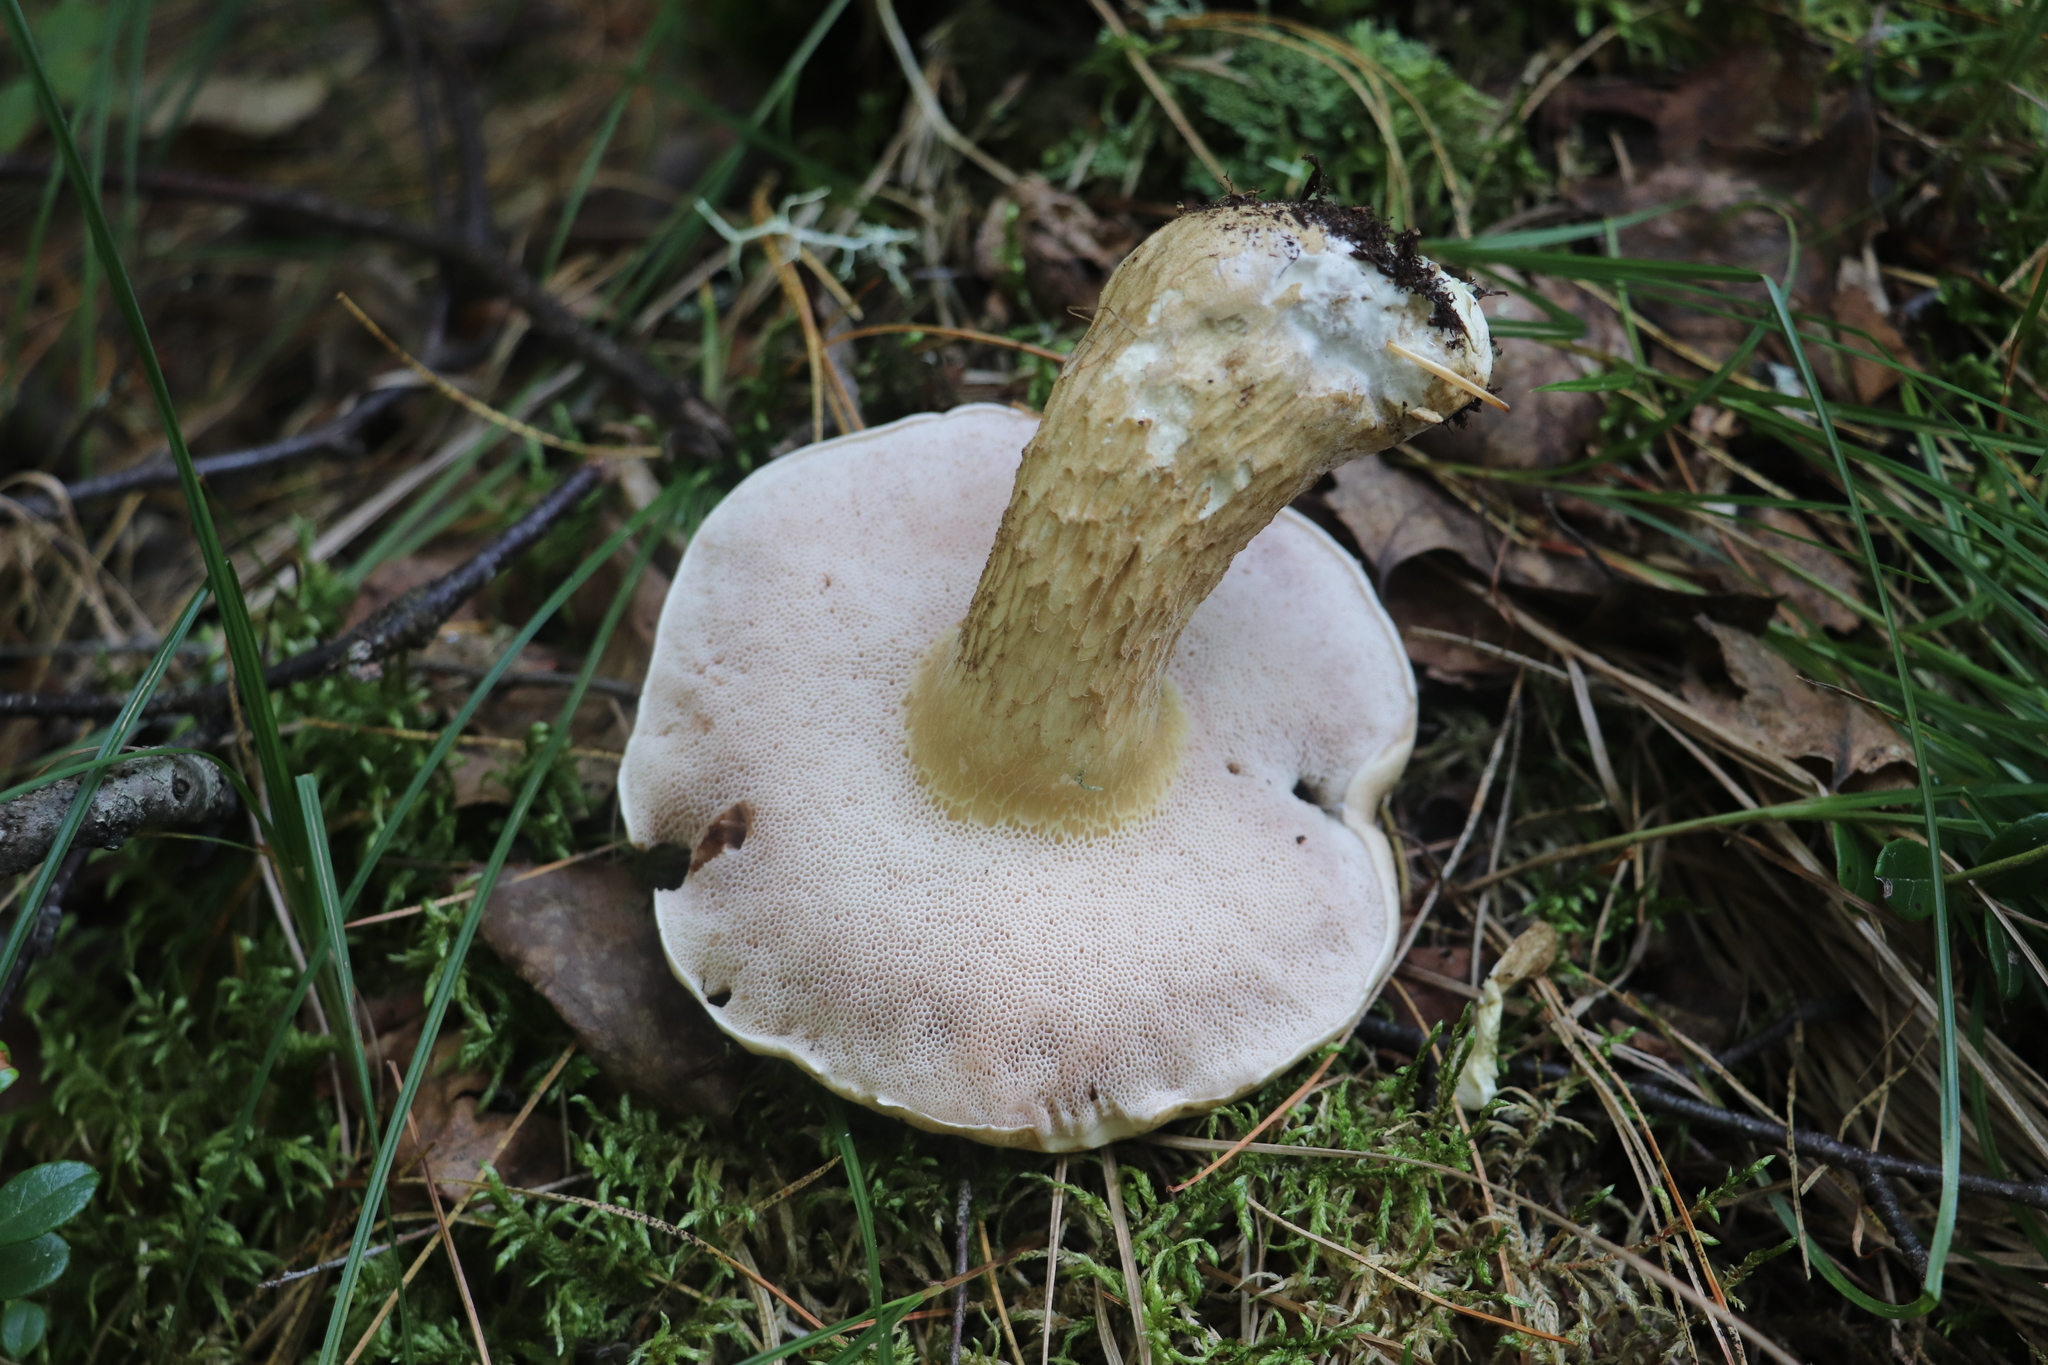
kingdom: Fungi
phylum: Basidiomycota
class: Agaricomycetes
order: Boletales
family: Boletaceae
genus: Tylopilus
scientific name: Tylopilus felleus
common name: Bitter bolete
